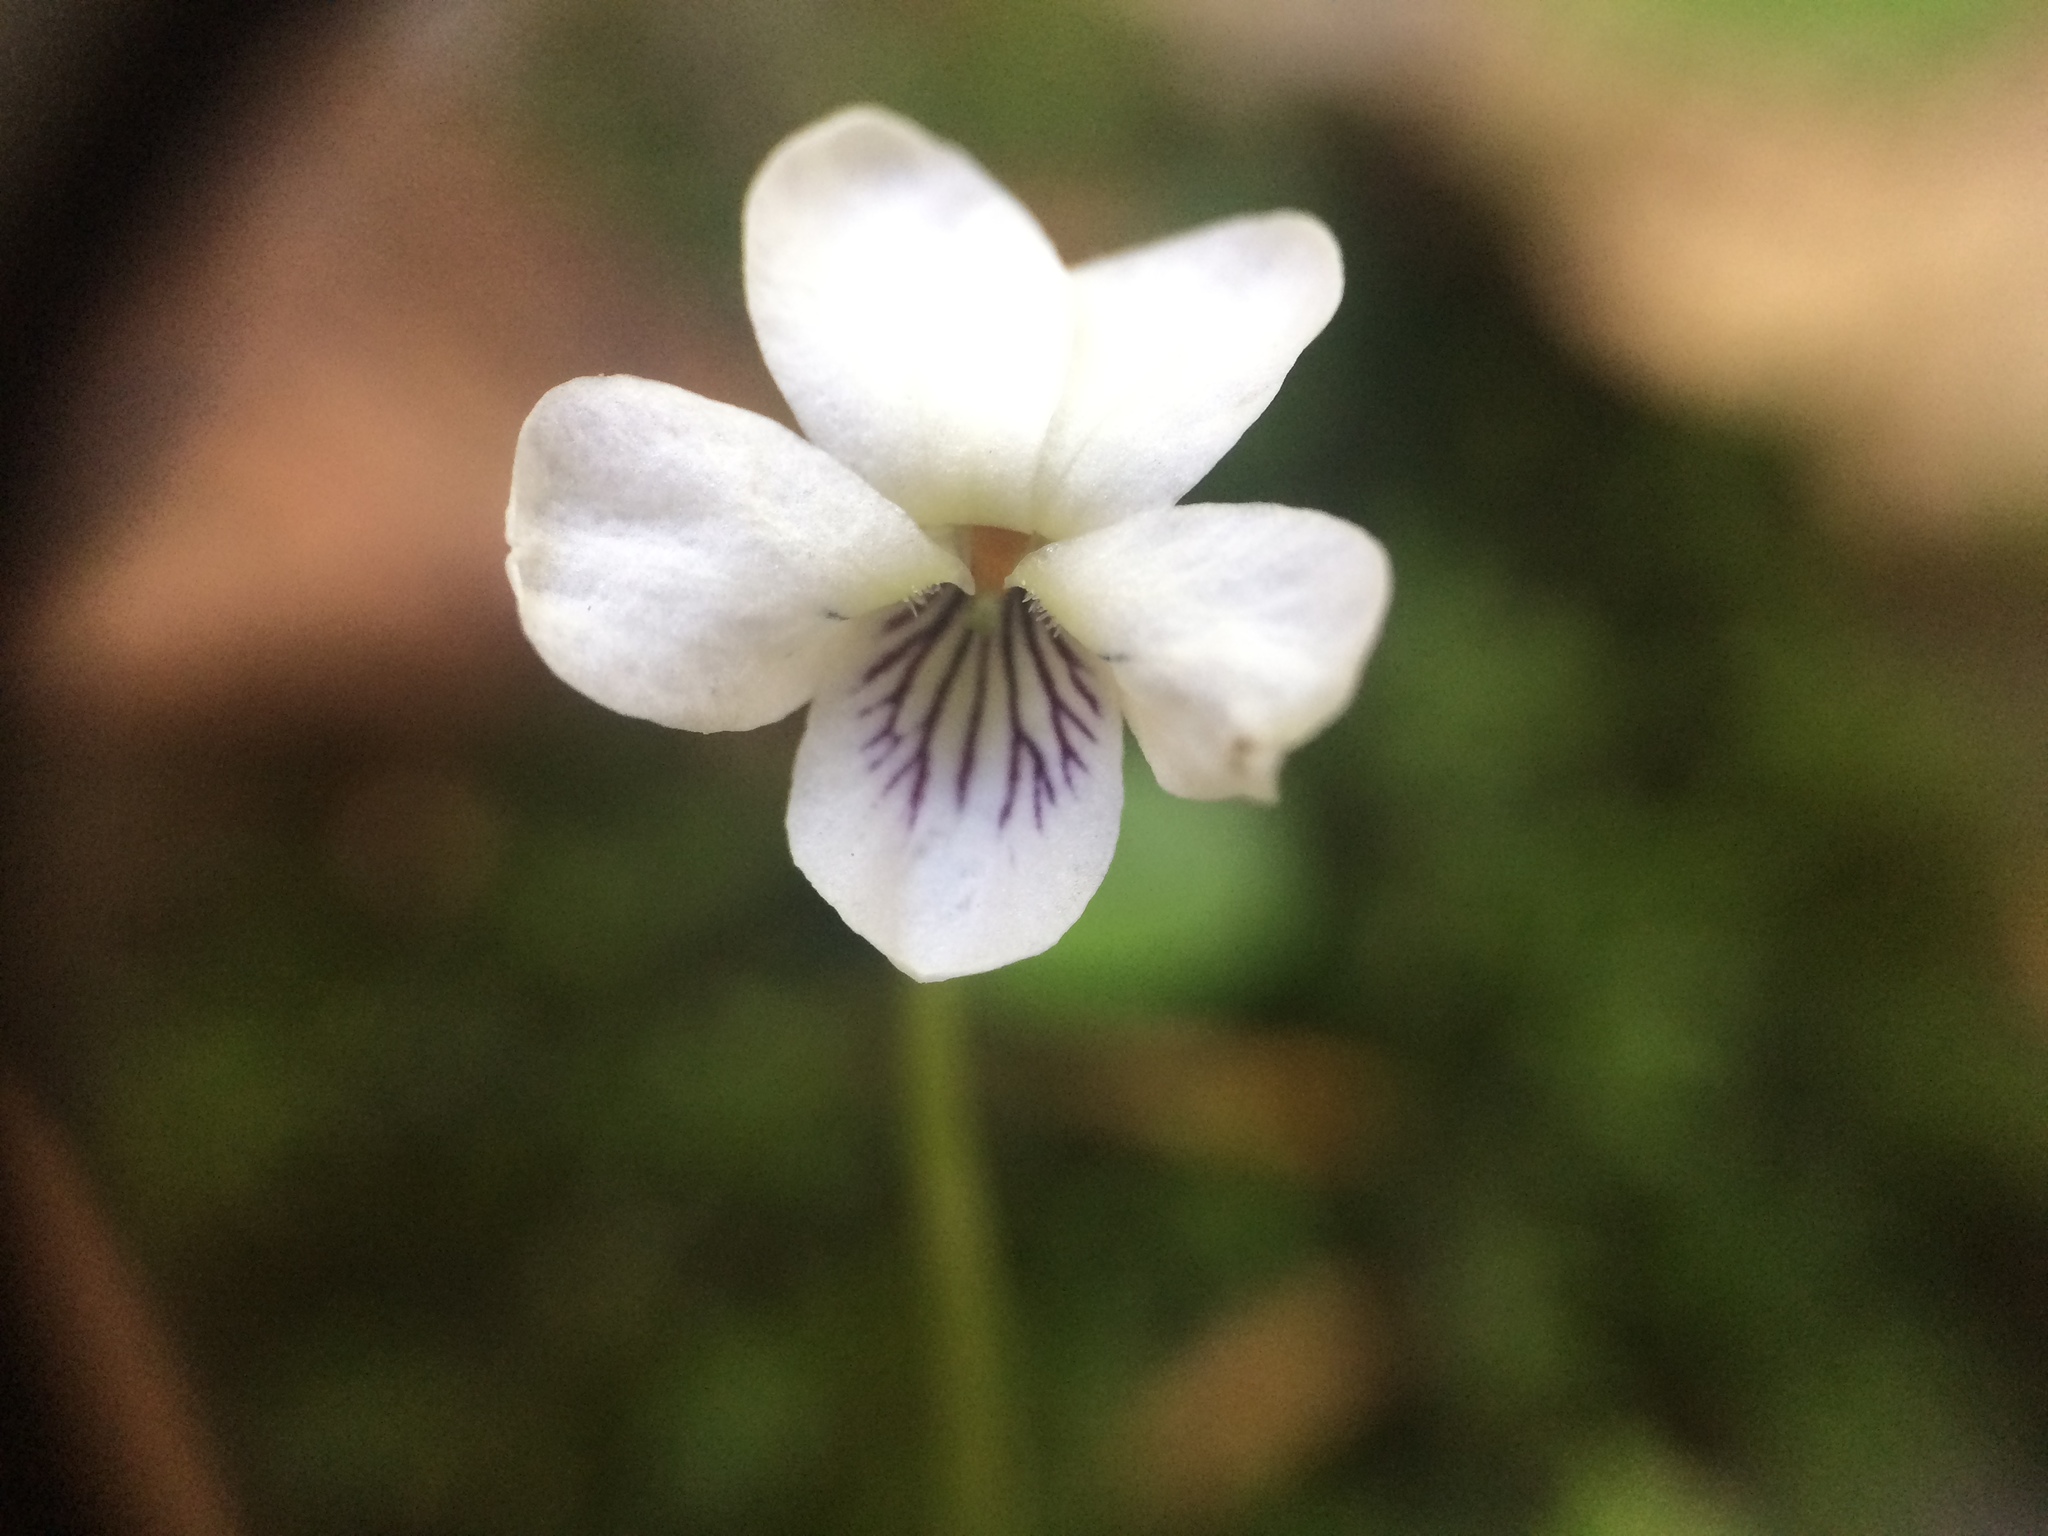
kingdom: Plantae
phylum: Tracheophyta
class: Magnoliopsida
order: Malpighiales
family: Violaceae
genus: Viola
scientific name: Viola incognita
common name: Largeleaf white violet
